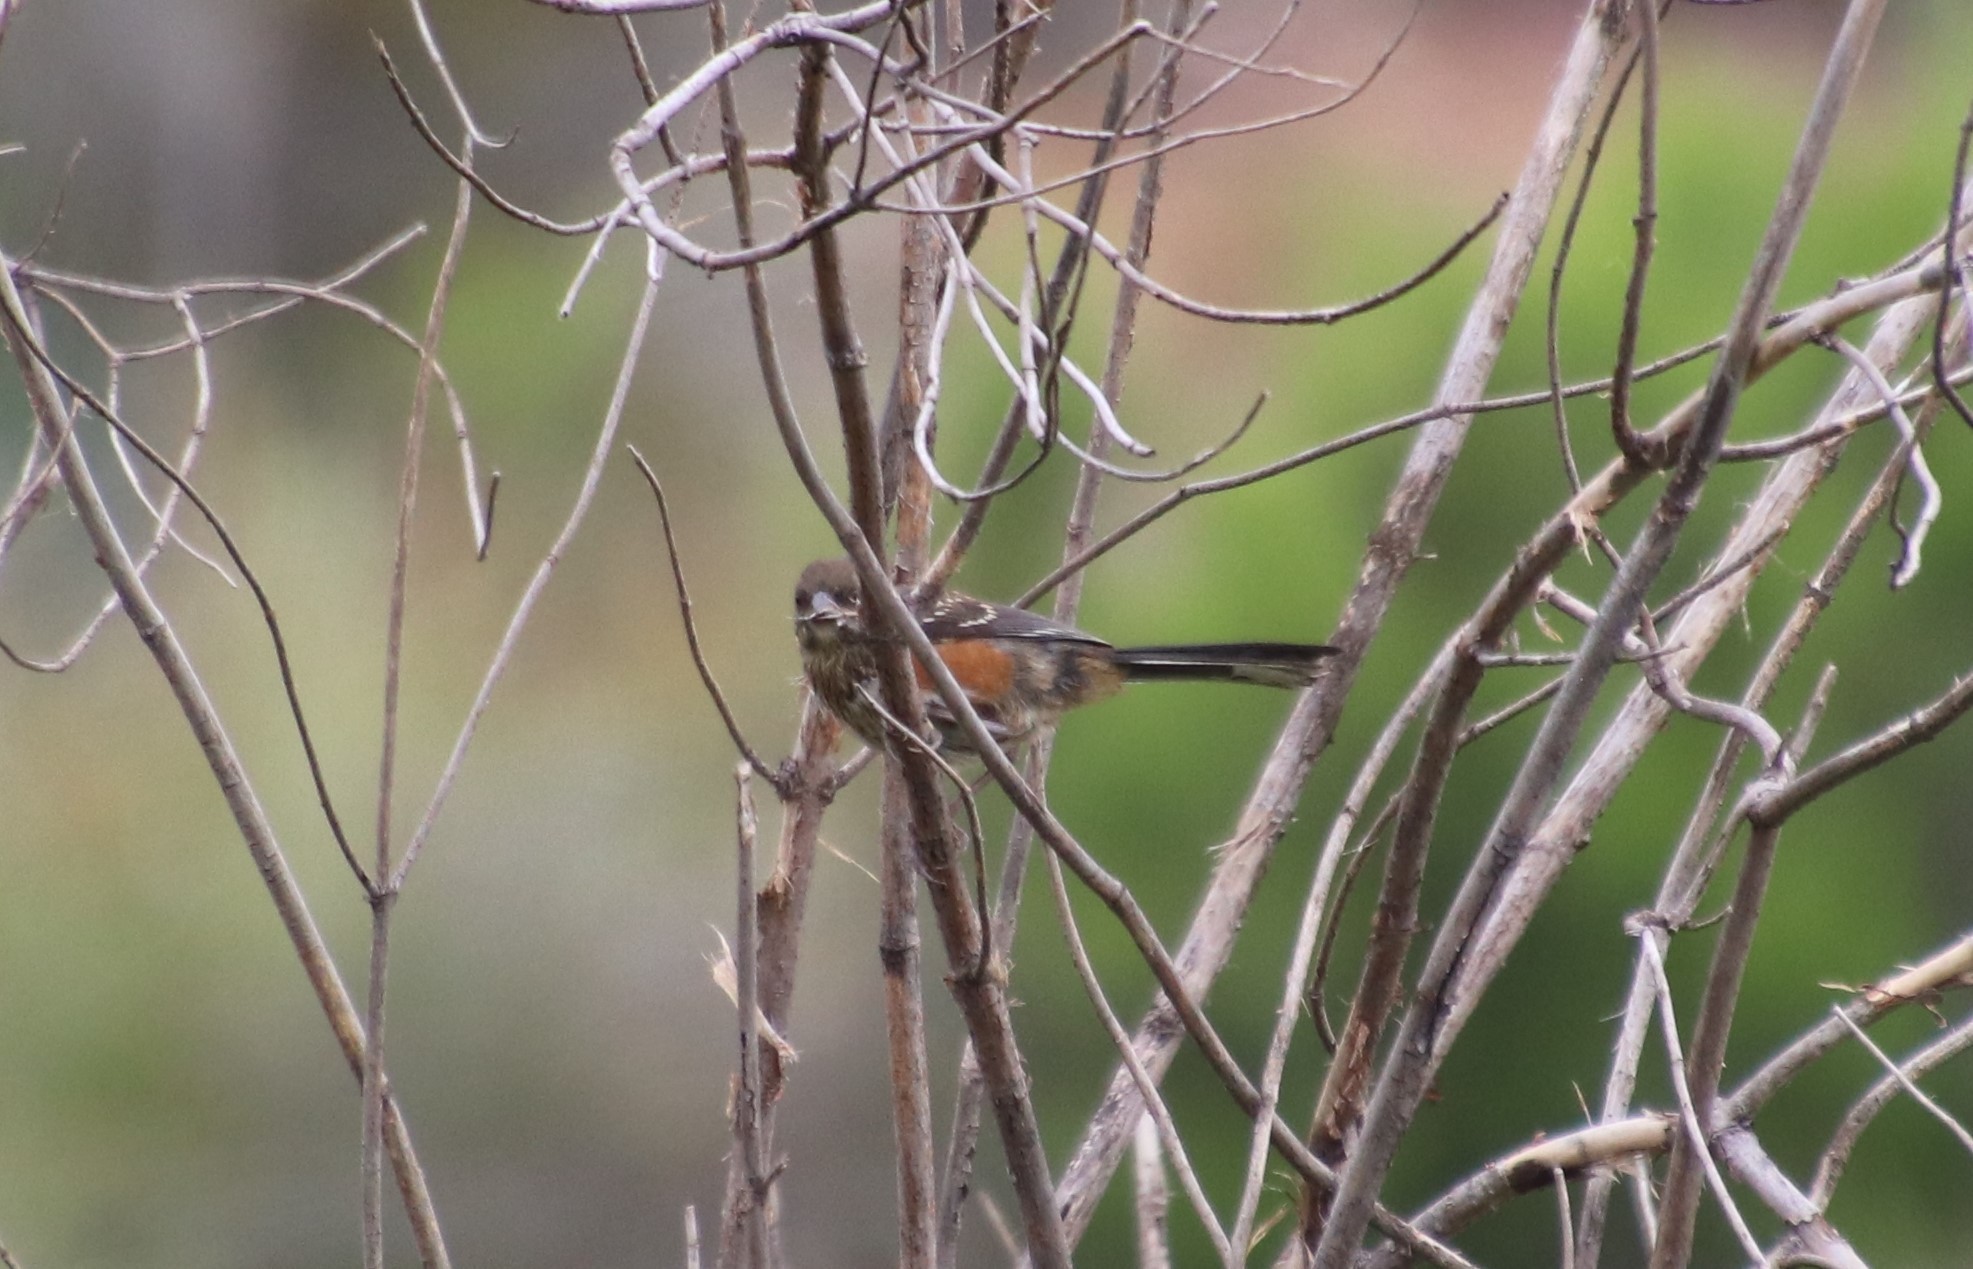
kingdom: Animalia
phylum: Chordata
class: Aves
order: Passeriformes
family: Passerellidae
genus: Pipilo
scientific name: Pipilo maculatus
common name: Spotted towhee
